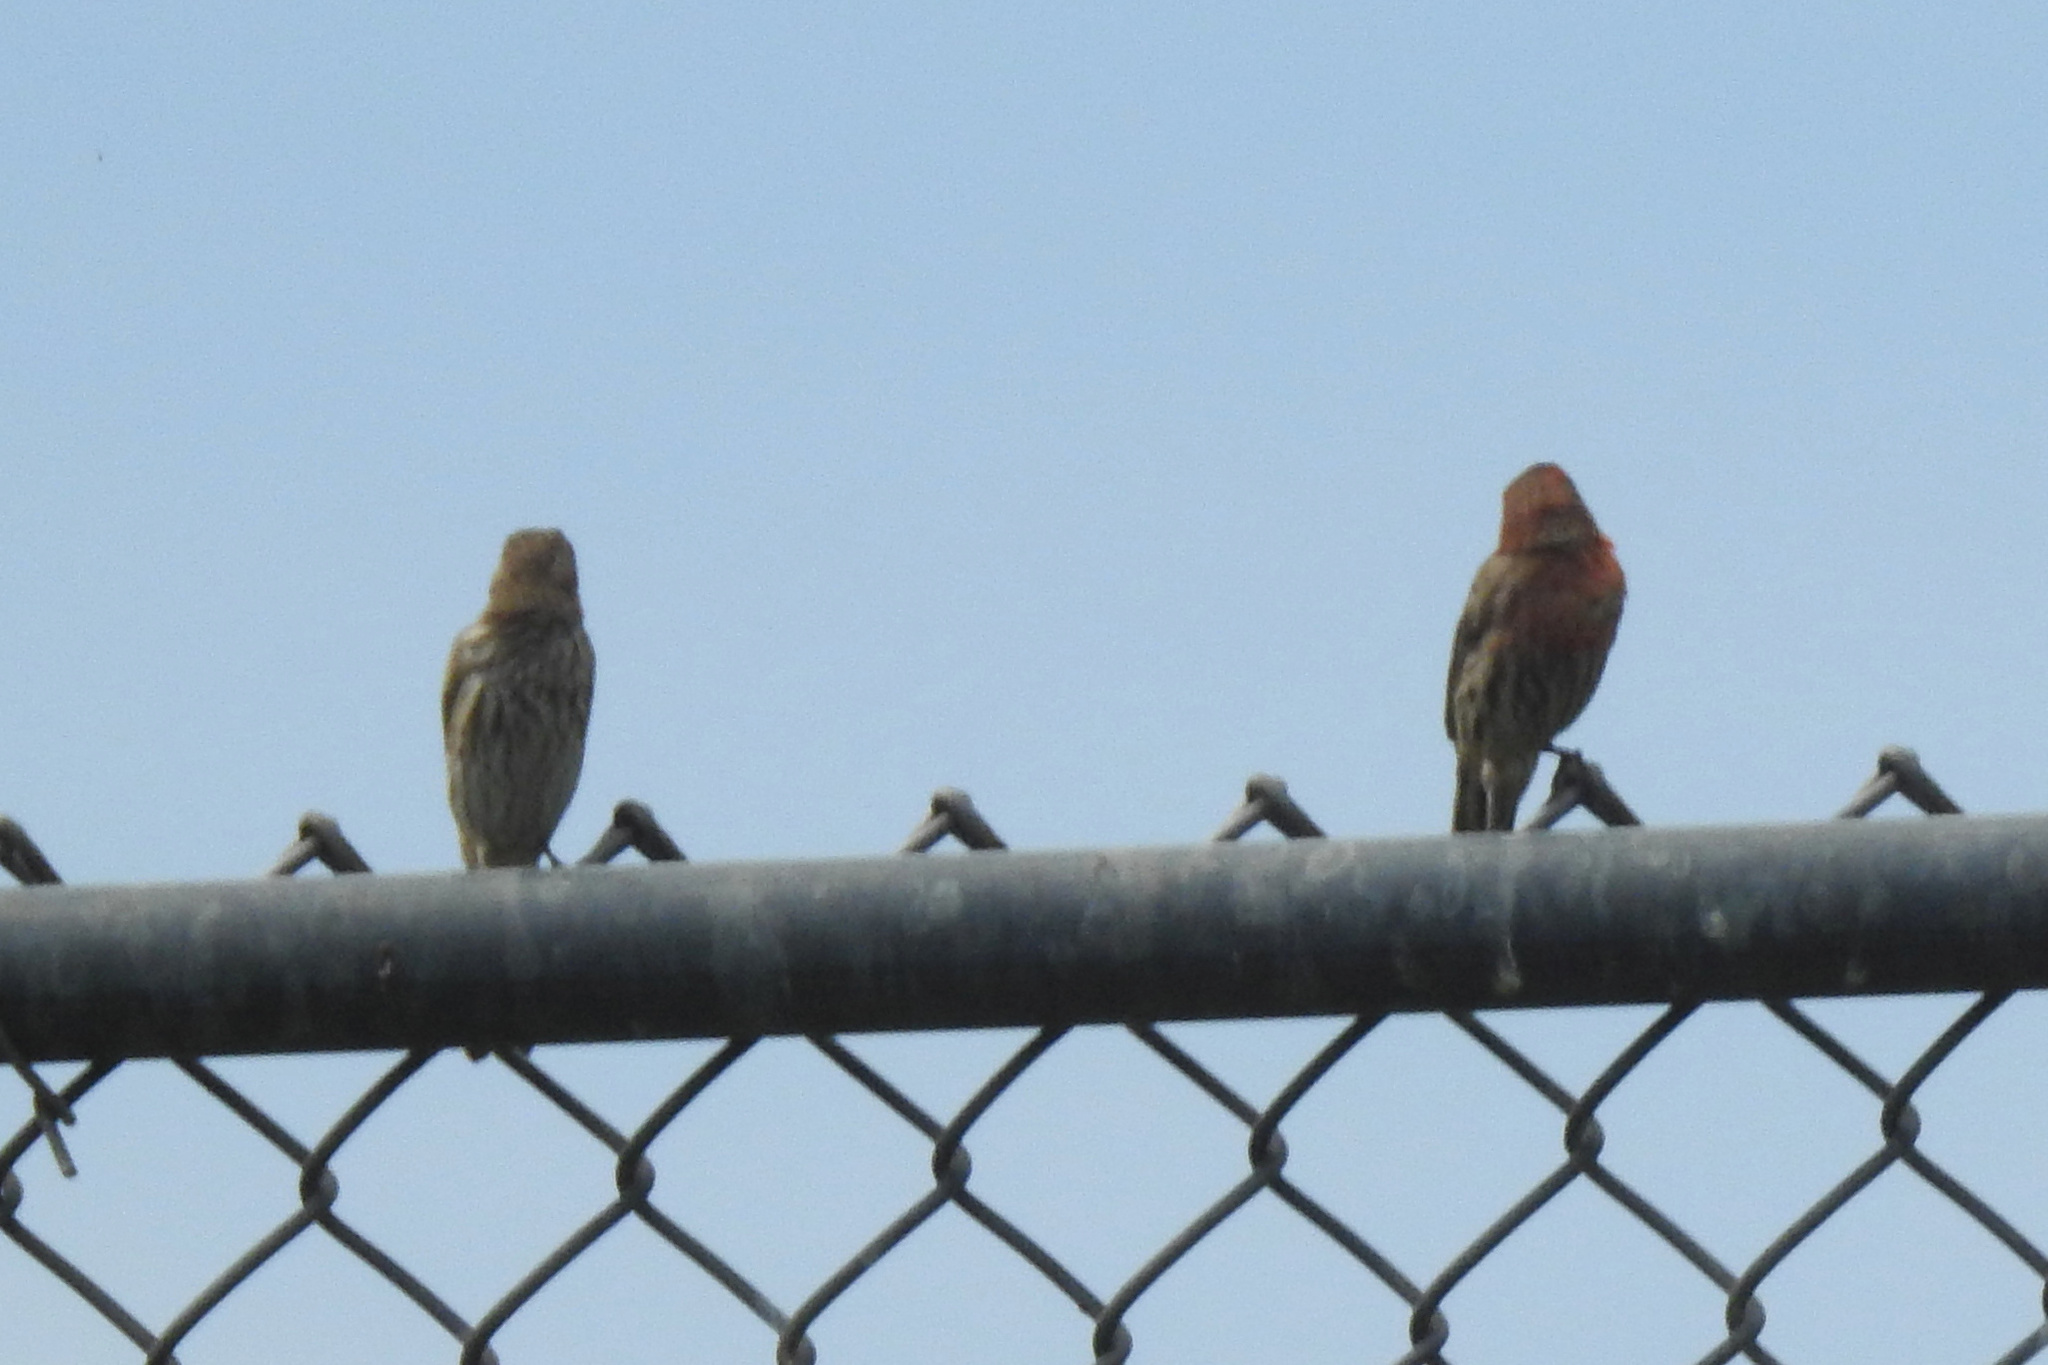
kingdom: Animalia
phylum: Chordata
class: Aves
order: Passeriformes
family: Fringillidae
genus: Haemorhous
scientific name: Haemorhous mexicanus
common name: House finch
